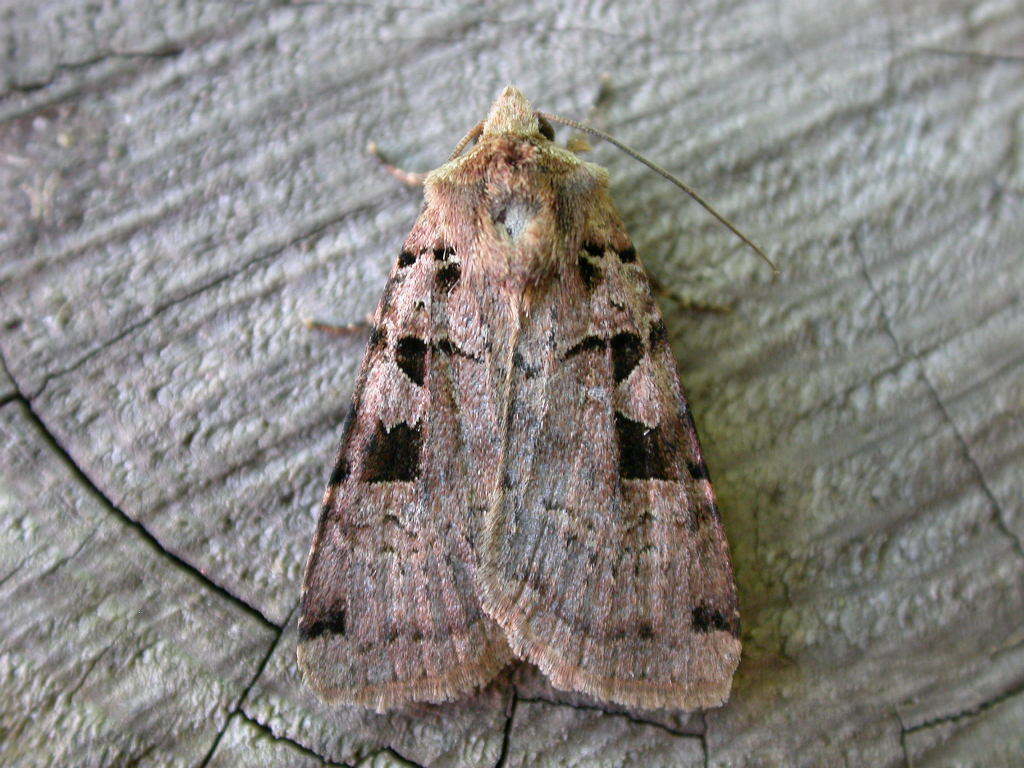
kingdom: Animalia
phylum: Arthropoda
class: Insecta
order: Lepidoptera
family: Noctuidae
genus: Xestia
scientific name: Xestia triangulum
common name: Double square-spot
